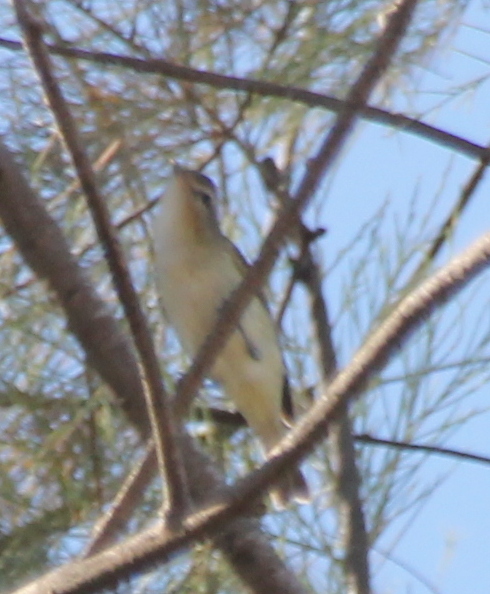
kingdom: Animalia
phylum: Chordata
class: Aves
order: Passeriformes
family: Vireonidae
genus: Vireo
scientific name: Vireo gilvus
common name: Warbling vireo
